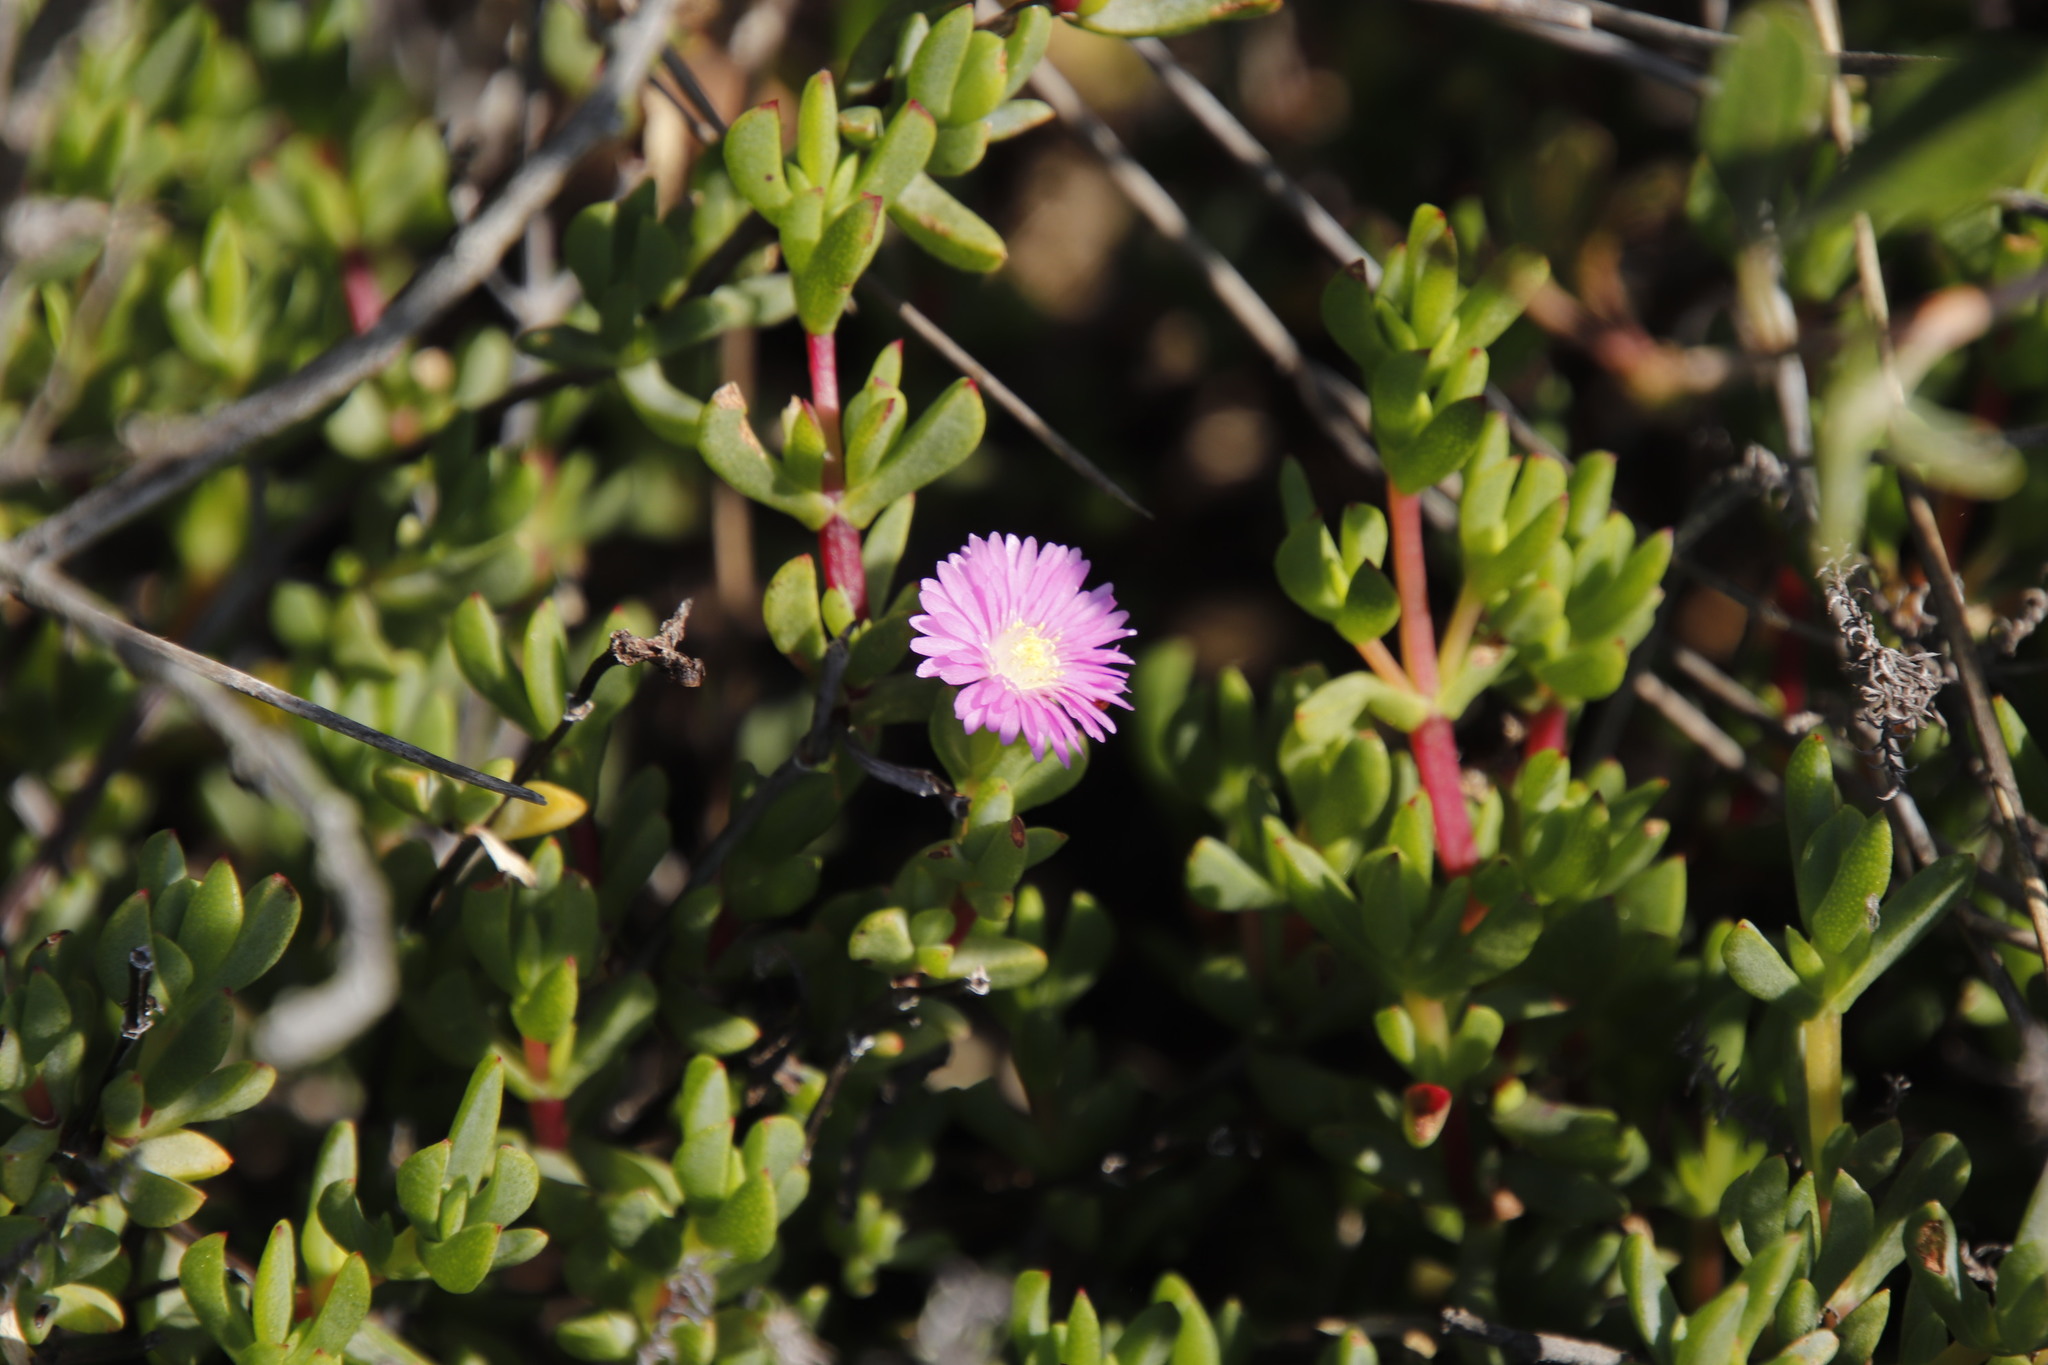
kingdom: Plantae
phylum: Tracheophyta
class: Magnoliopsida
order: Caryophyllales
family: Aizoaceae
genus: Oscularia
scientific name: Oscularia falciformis
